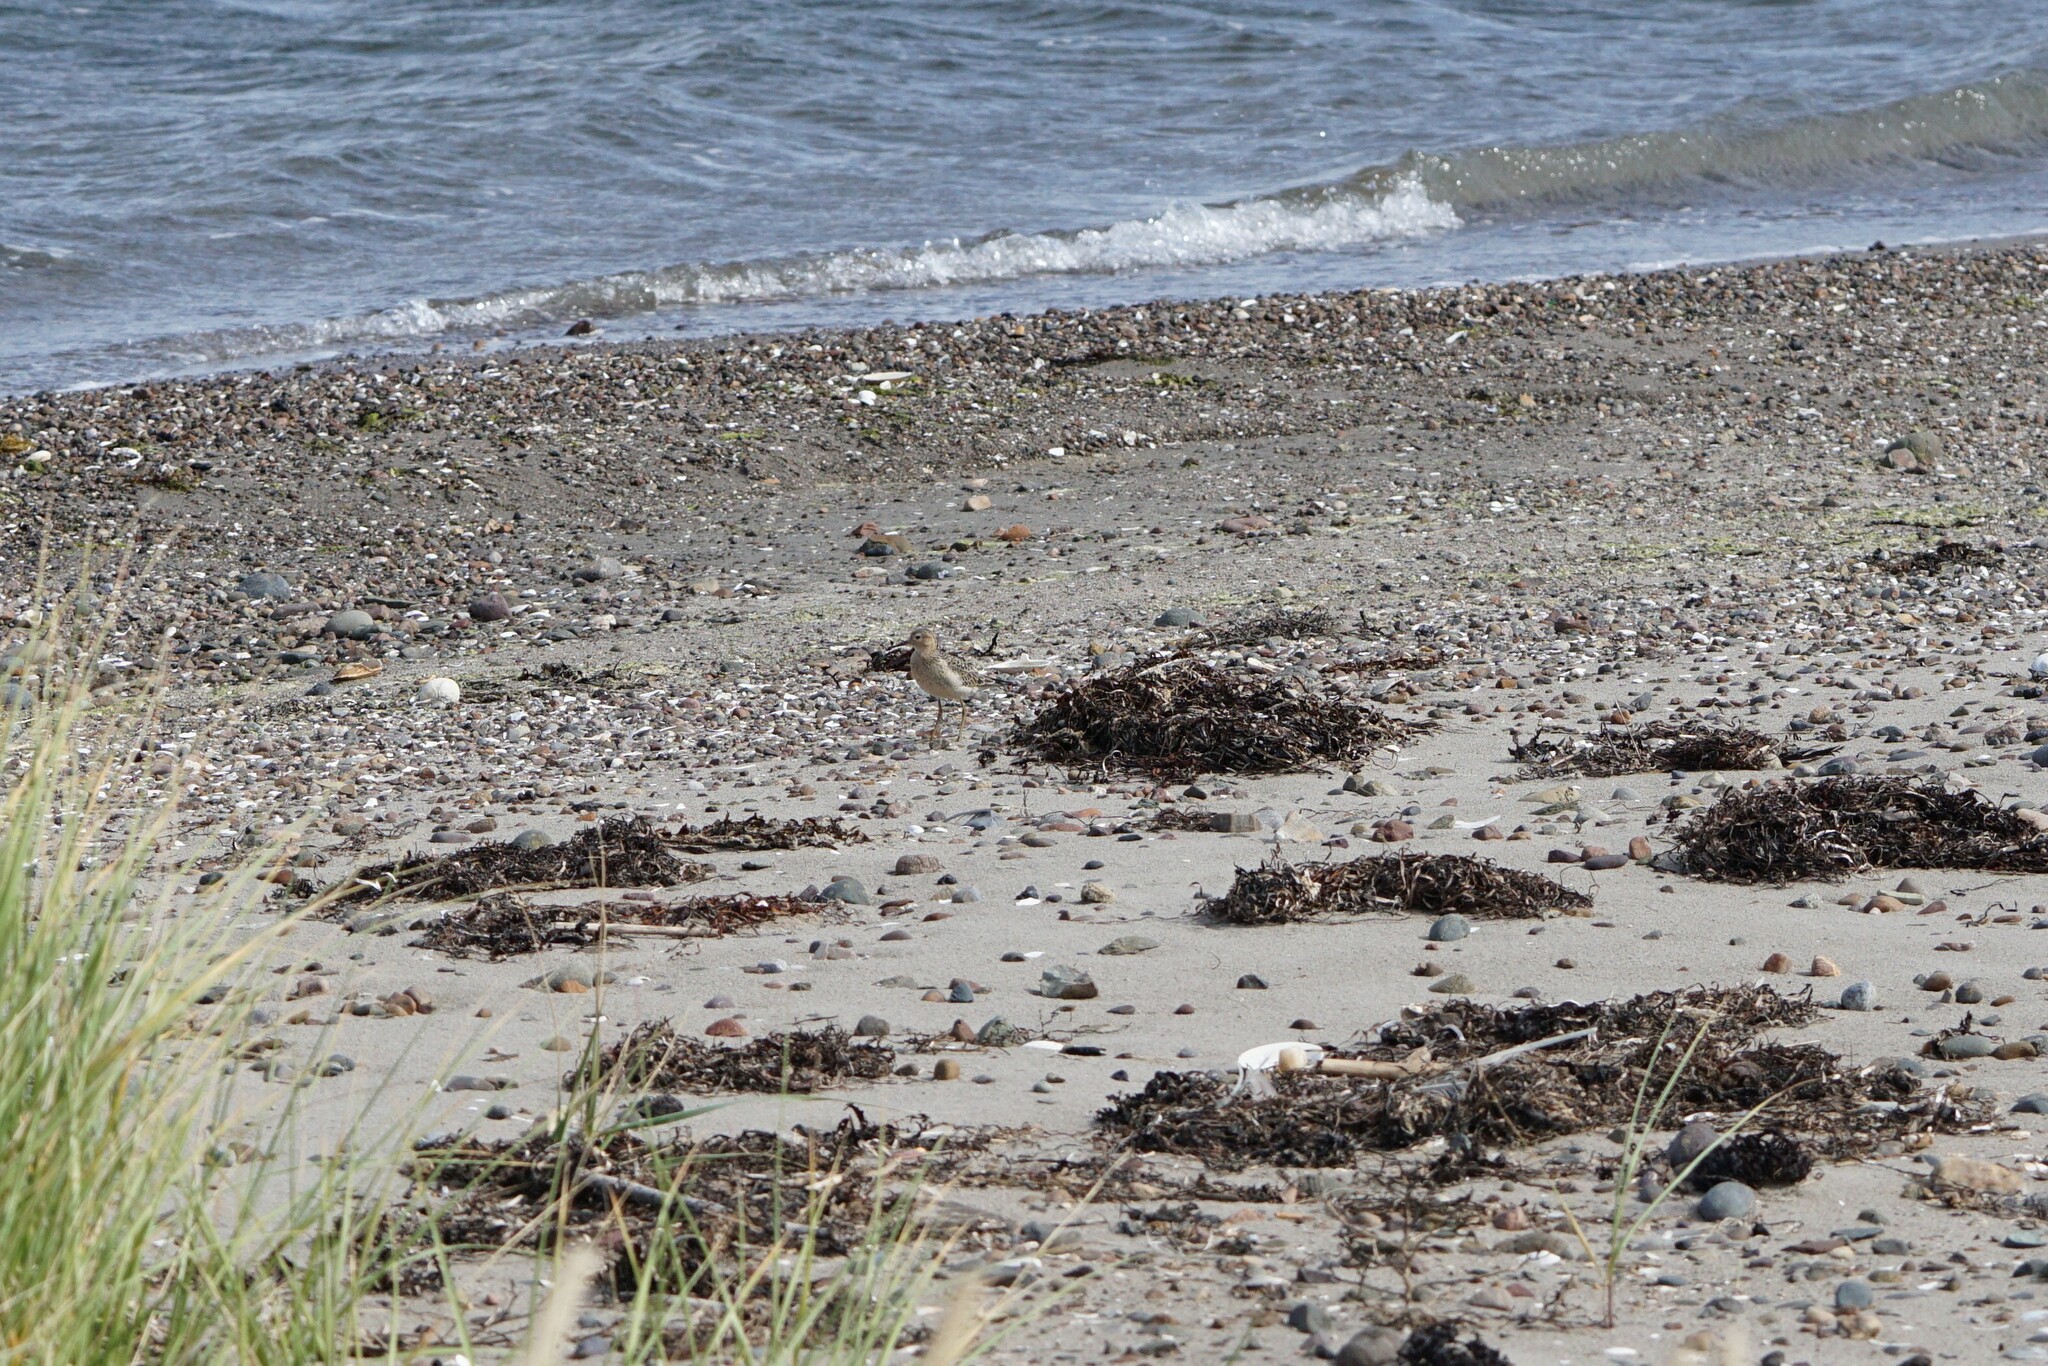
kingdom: Animalia
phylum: Chordata
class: Aves
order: Charadriiformes
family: Scolopacidae
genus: Calidris
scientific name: Calidris subruficollis
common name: Buff-breasted sandpiper
